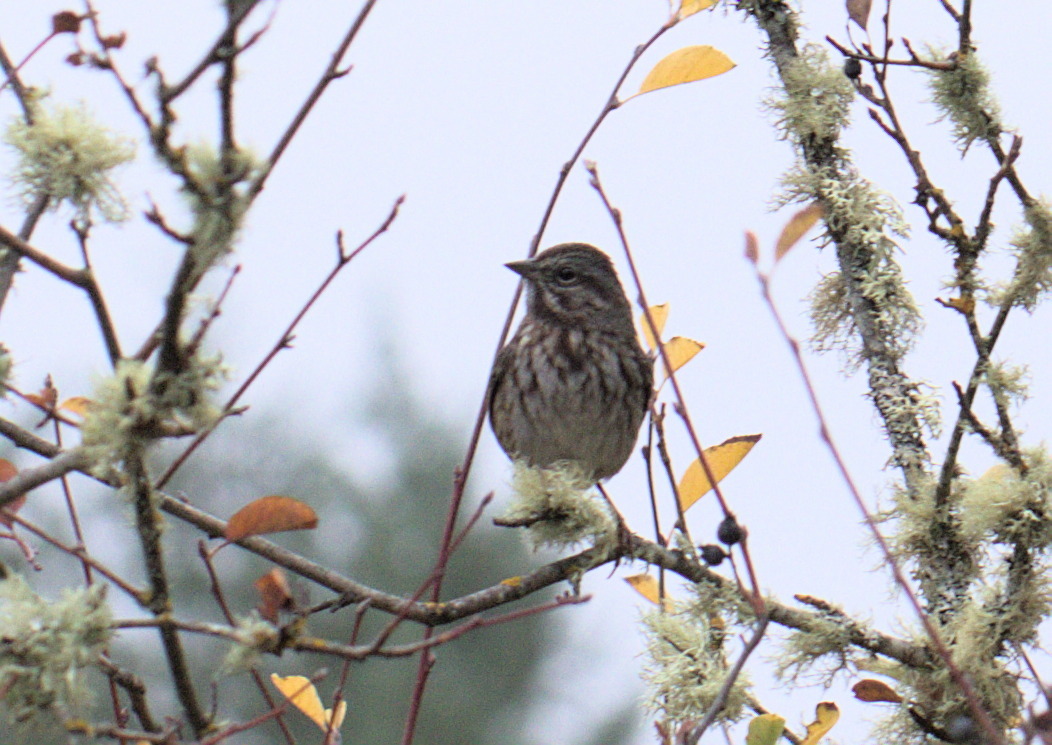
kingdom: Animalia
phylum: Chordata
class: Aves
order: Passeriformes
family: Passerellidae
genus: Melospiza
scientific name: Melospiza melodia
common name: Song sparrow
